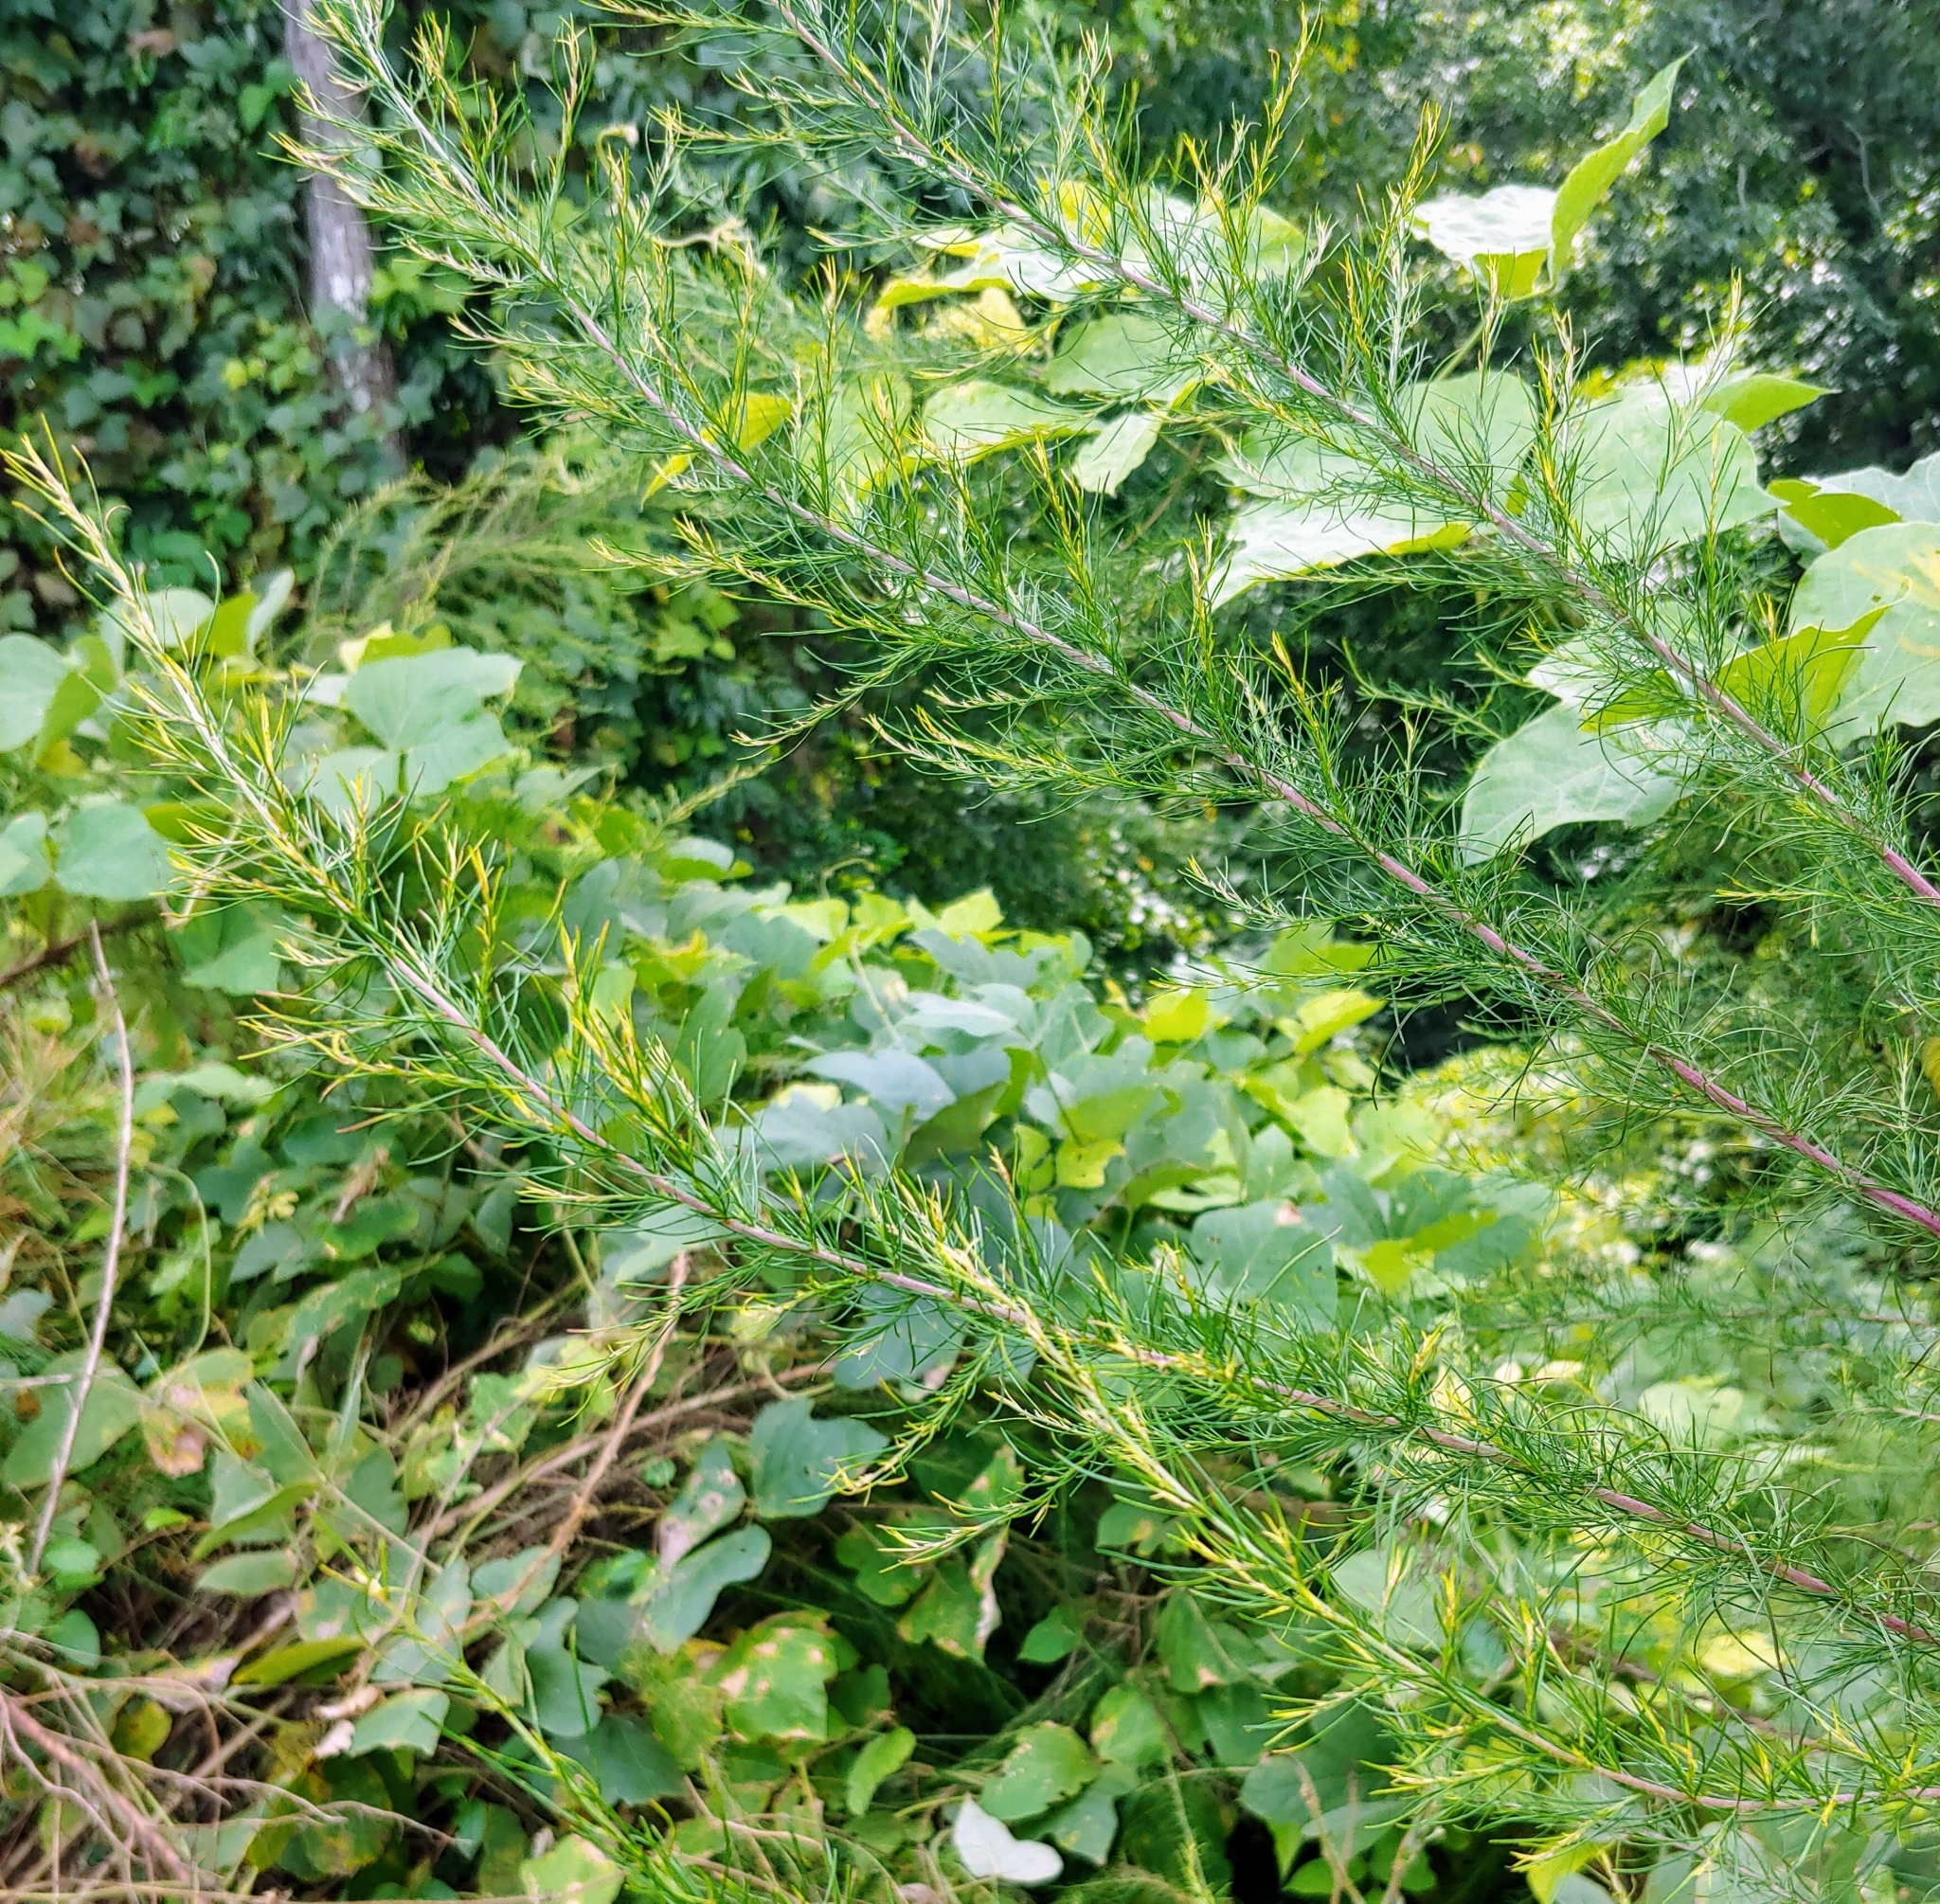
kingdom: Plantae
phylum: Tracheophyta
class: Magnoliopsida
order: Asterales
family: Asteraceae
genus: Eupatorium
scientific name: Eupatorium capillifolium
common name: Dog-fennel
